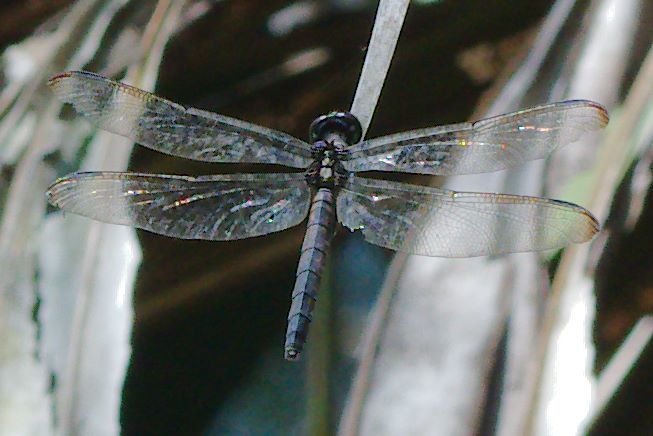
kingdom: Animalia
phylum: Arthropoda
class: Insecta
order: Odonata
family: Libellulidae
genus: Libellula
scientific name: Libellula incesta
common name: Slaty skimmer
